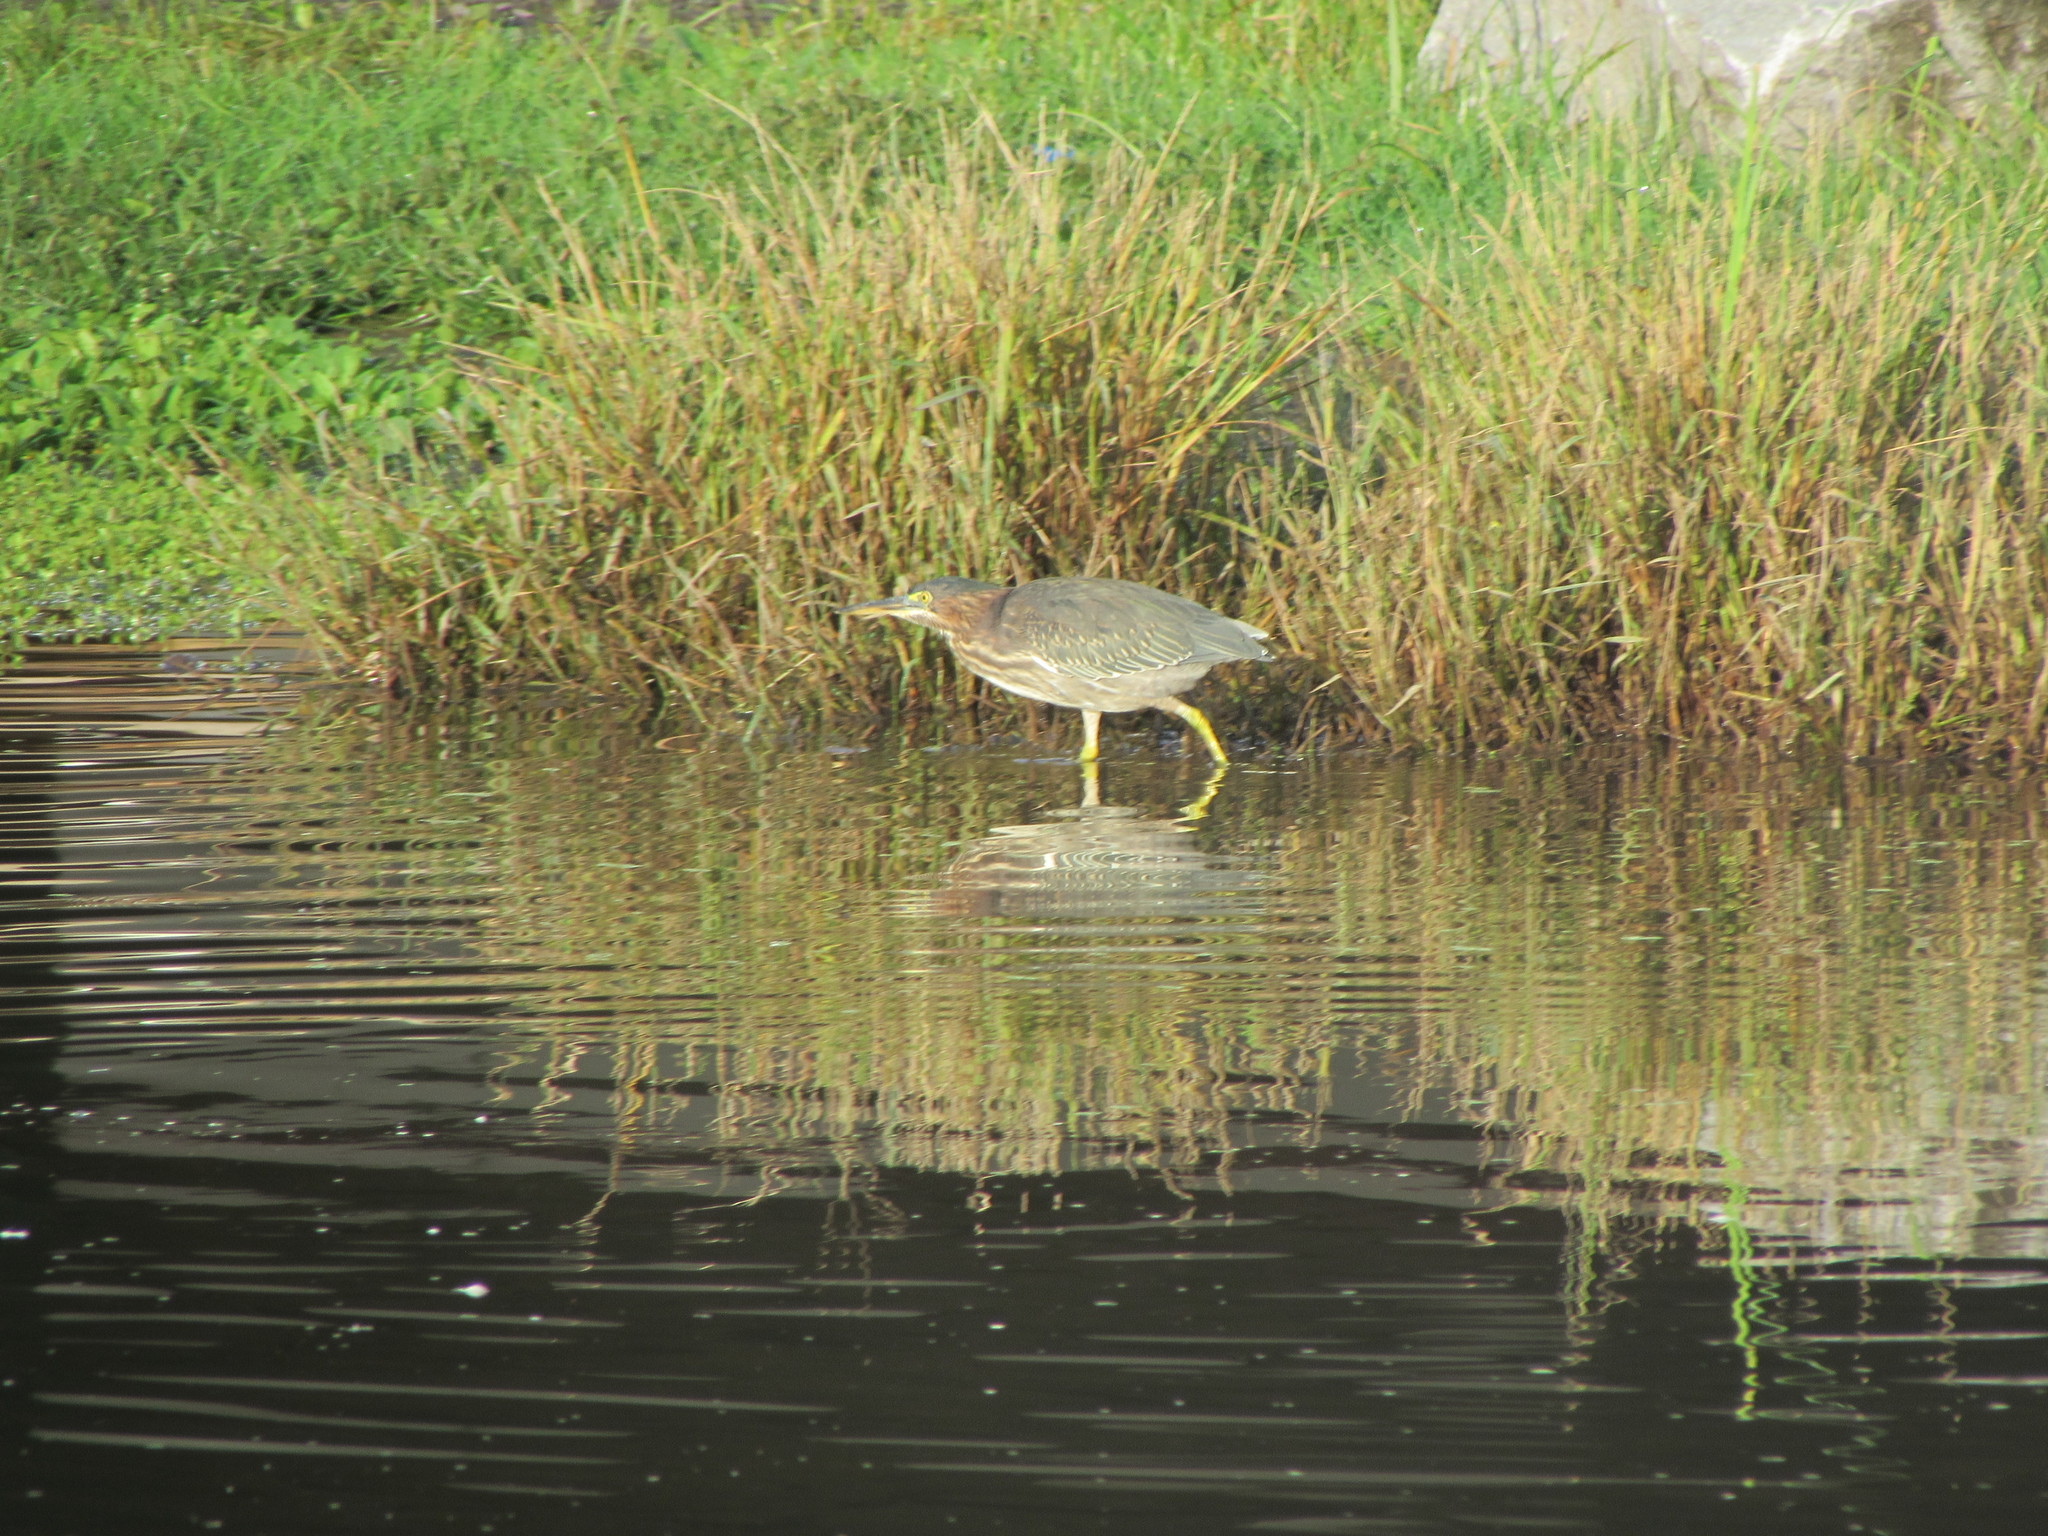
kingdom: Animalia
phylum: Chordata
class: Aves
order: Pelecaniformes
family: Ardeidae
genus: Butorides
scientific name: Butorides virescens
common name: Green heron
